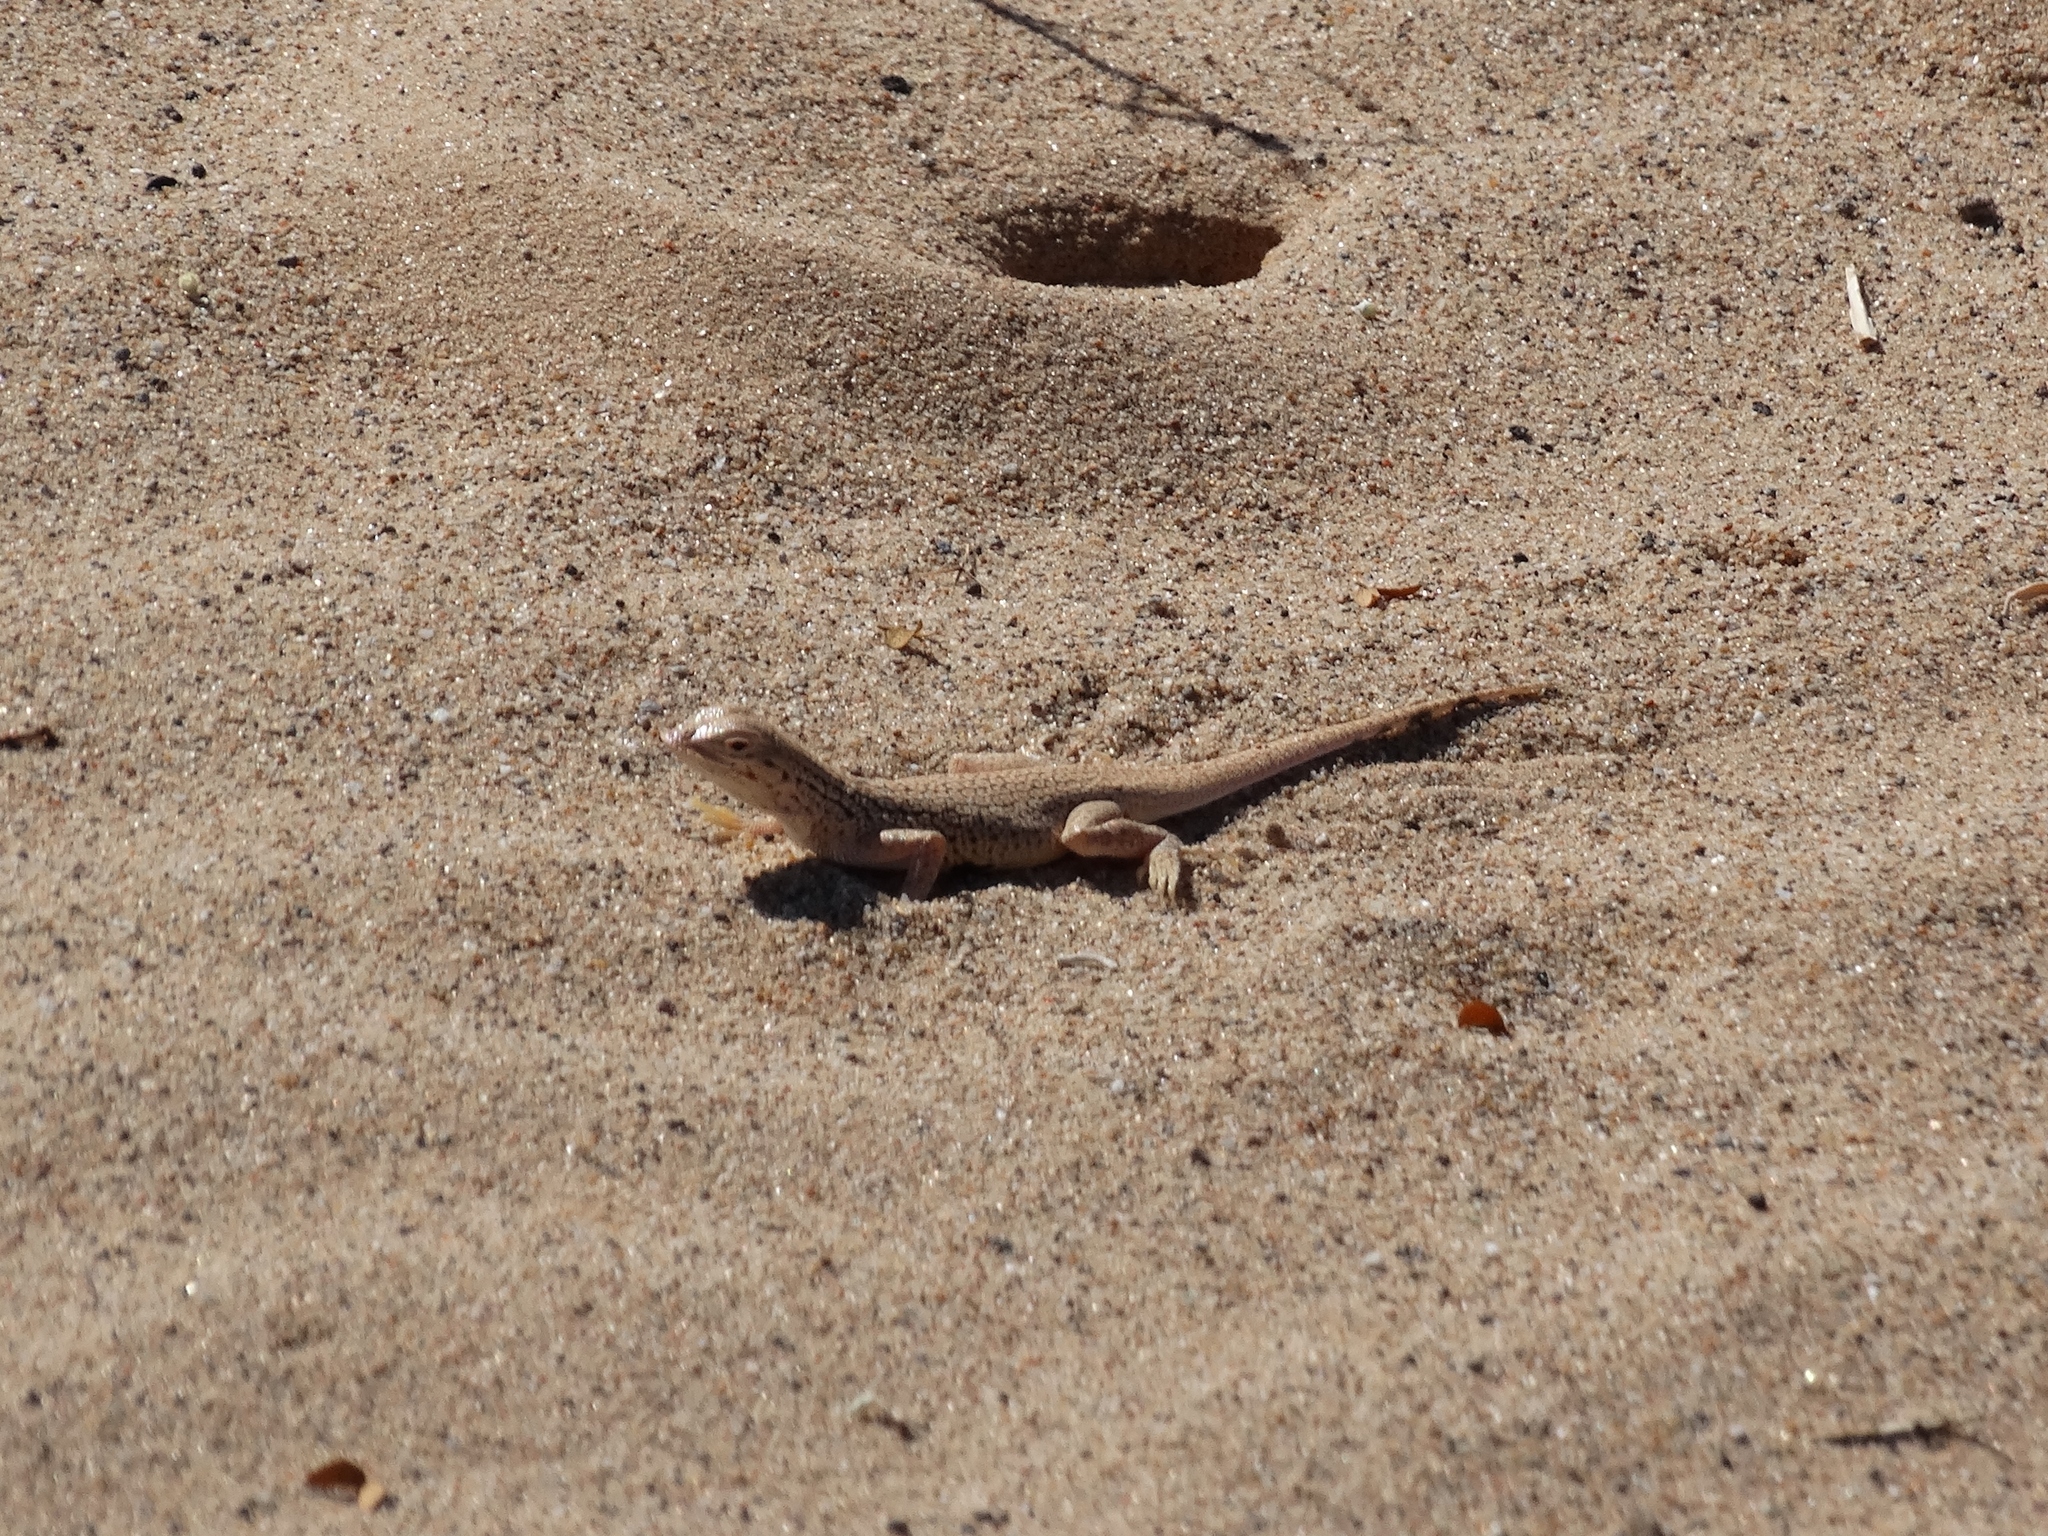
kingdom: Animalia
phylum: Chordata
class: Squamata
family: Phrynosomatidae
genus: Uma
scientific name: Uma notata
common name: Colorado desert fringe-toed lizard
